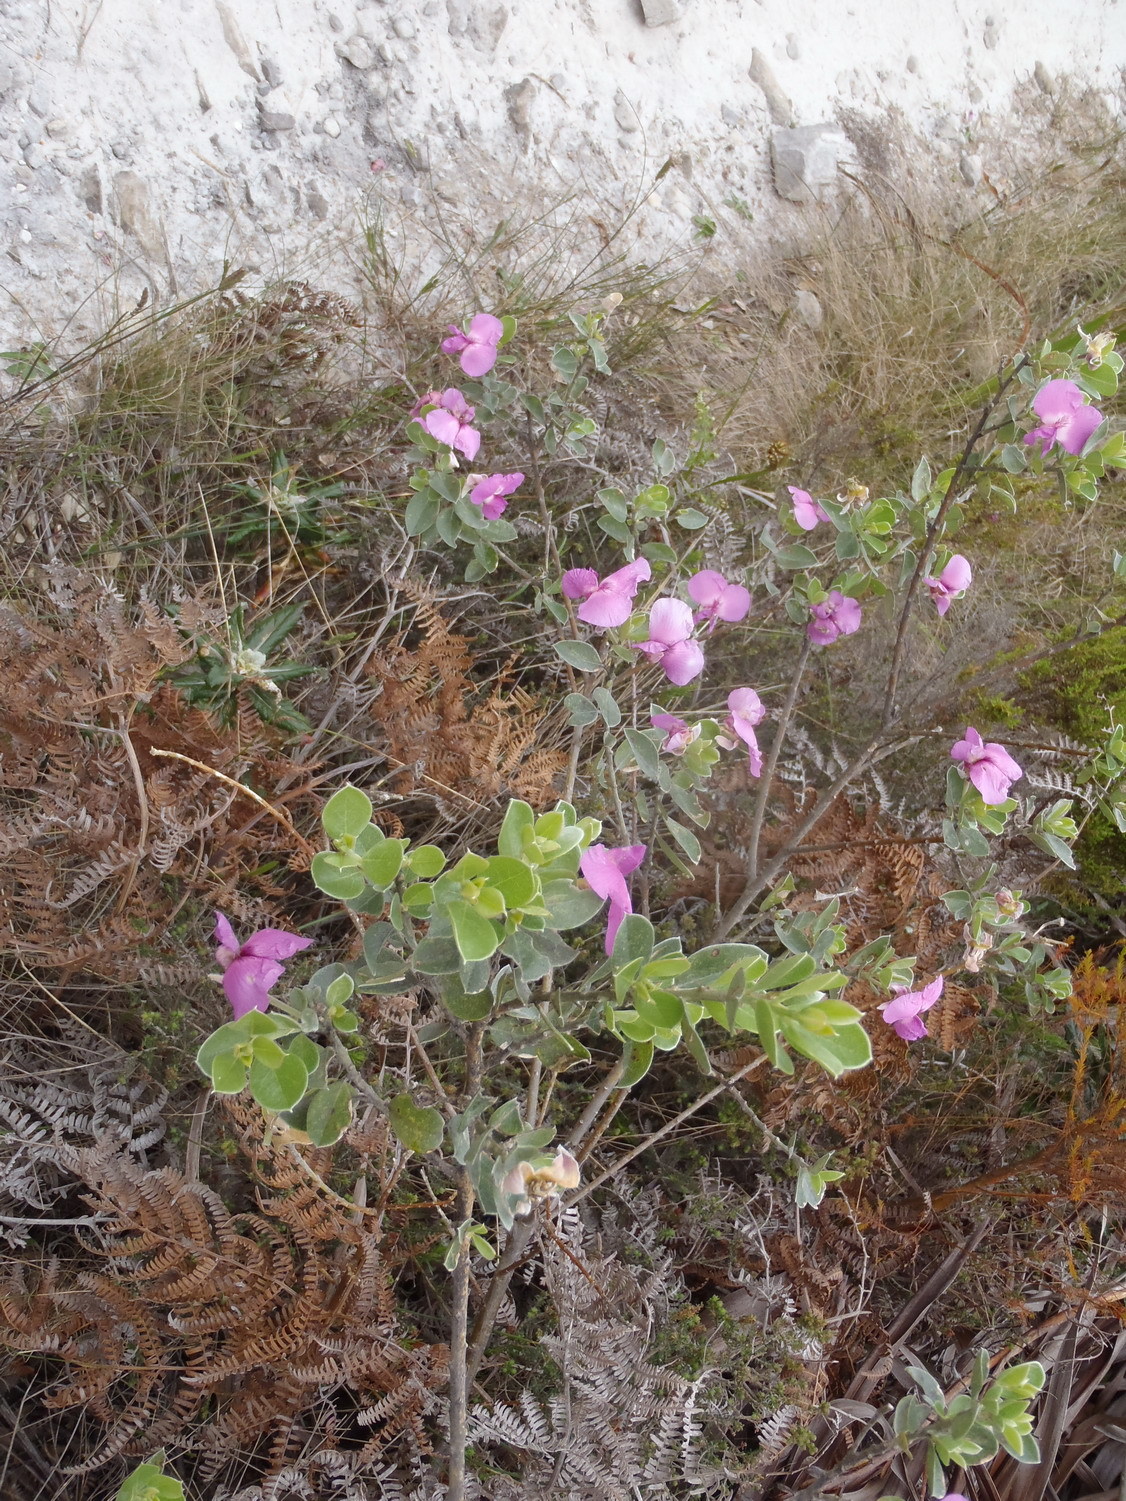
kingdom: Plantae
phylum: Tracheophyta
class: Magnoliopsida
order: Fabales
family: Fabaceae
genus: Podalyria
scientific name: Podalyria calyptrata
